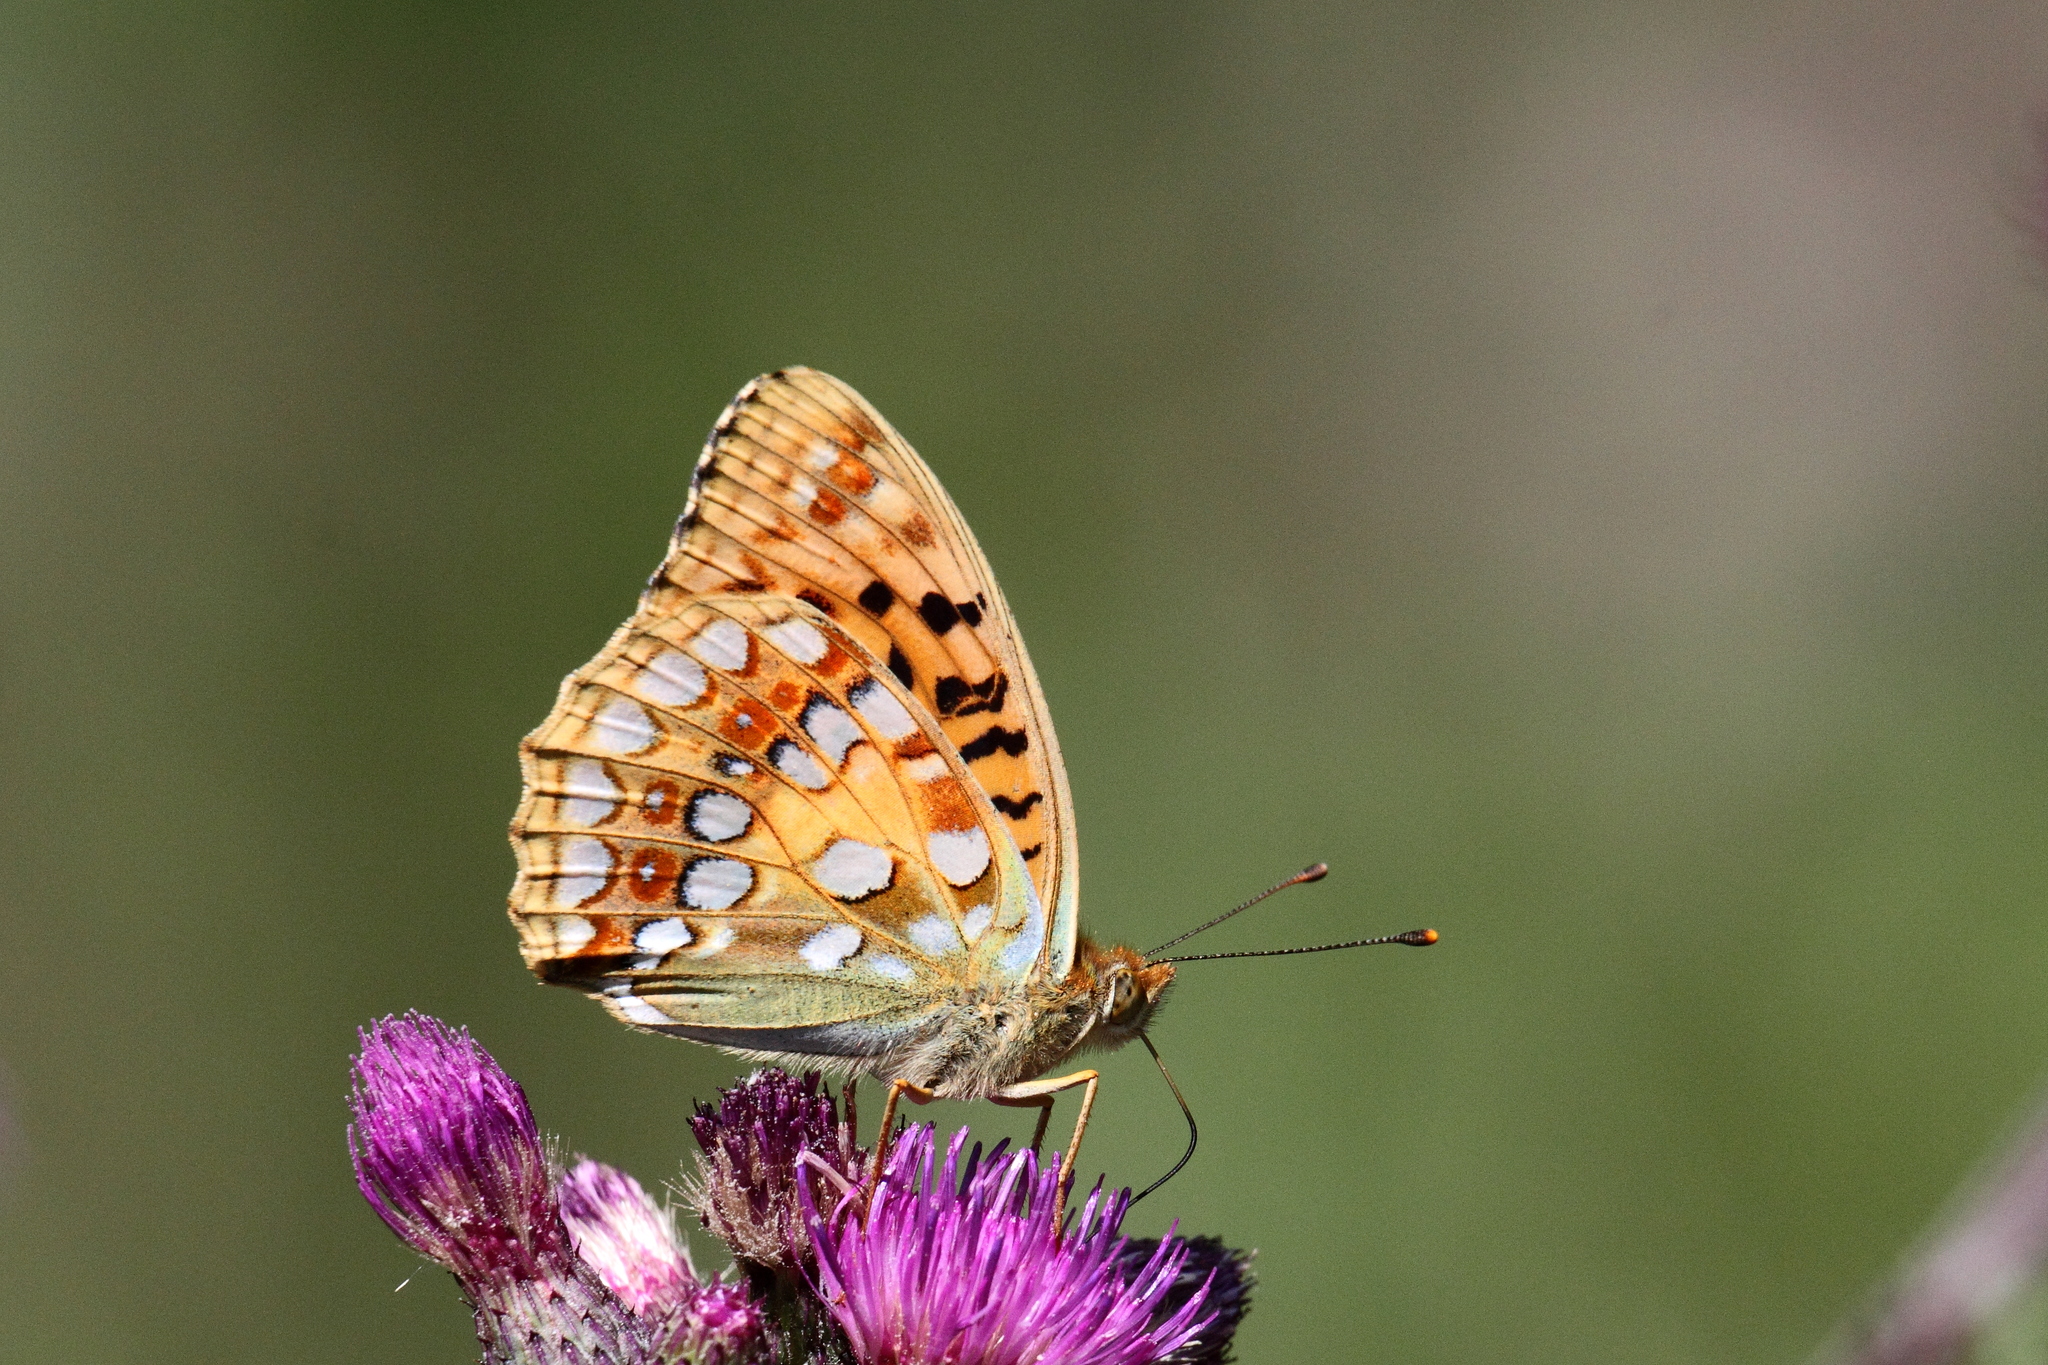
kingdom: Animalia
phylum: Arthropoda
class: Insecta
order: Lepidoptera
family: Nymphalidae
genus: Fabriciana
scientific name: Fabriciana adippe
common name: High brown fritillary
